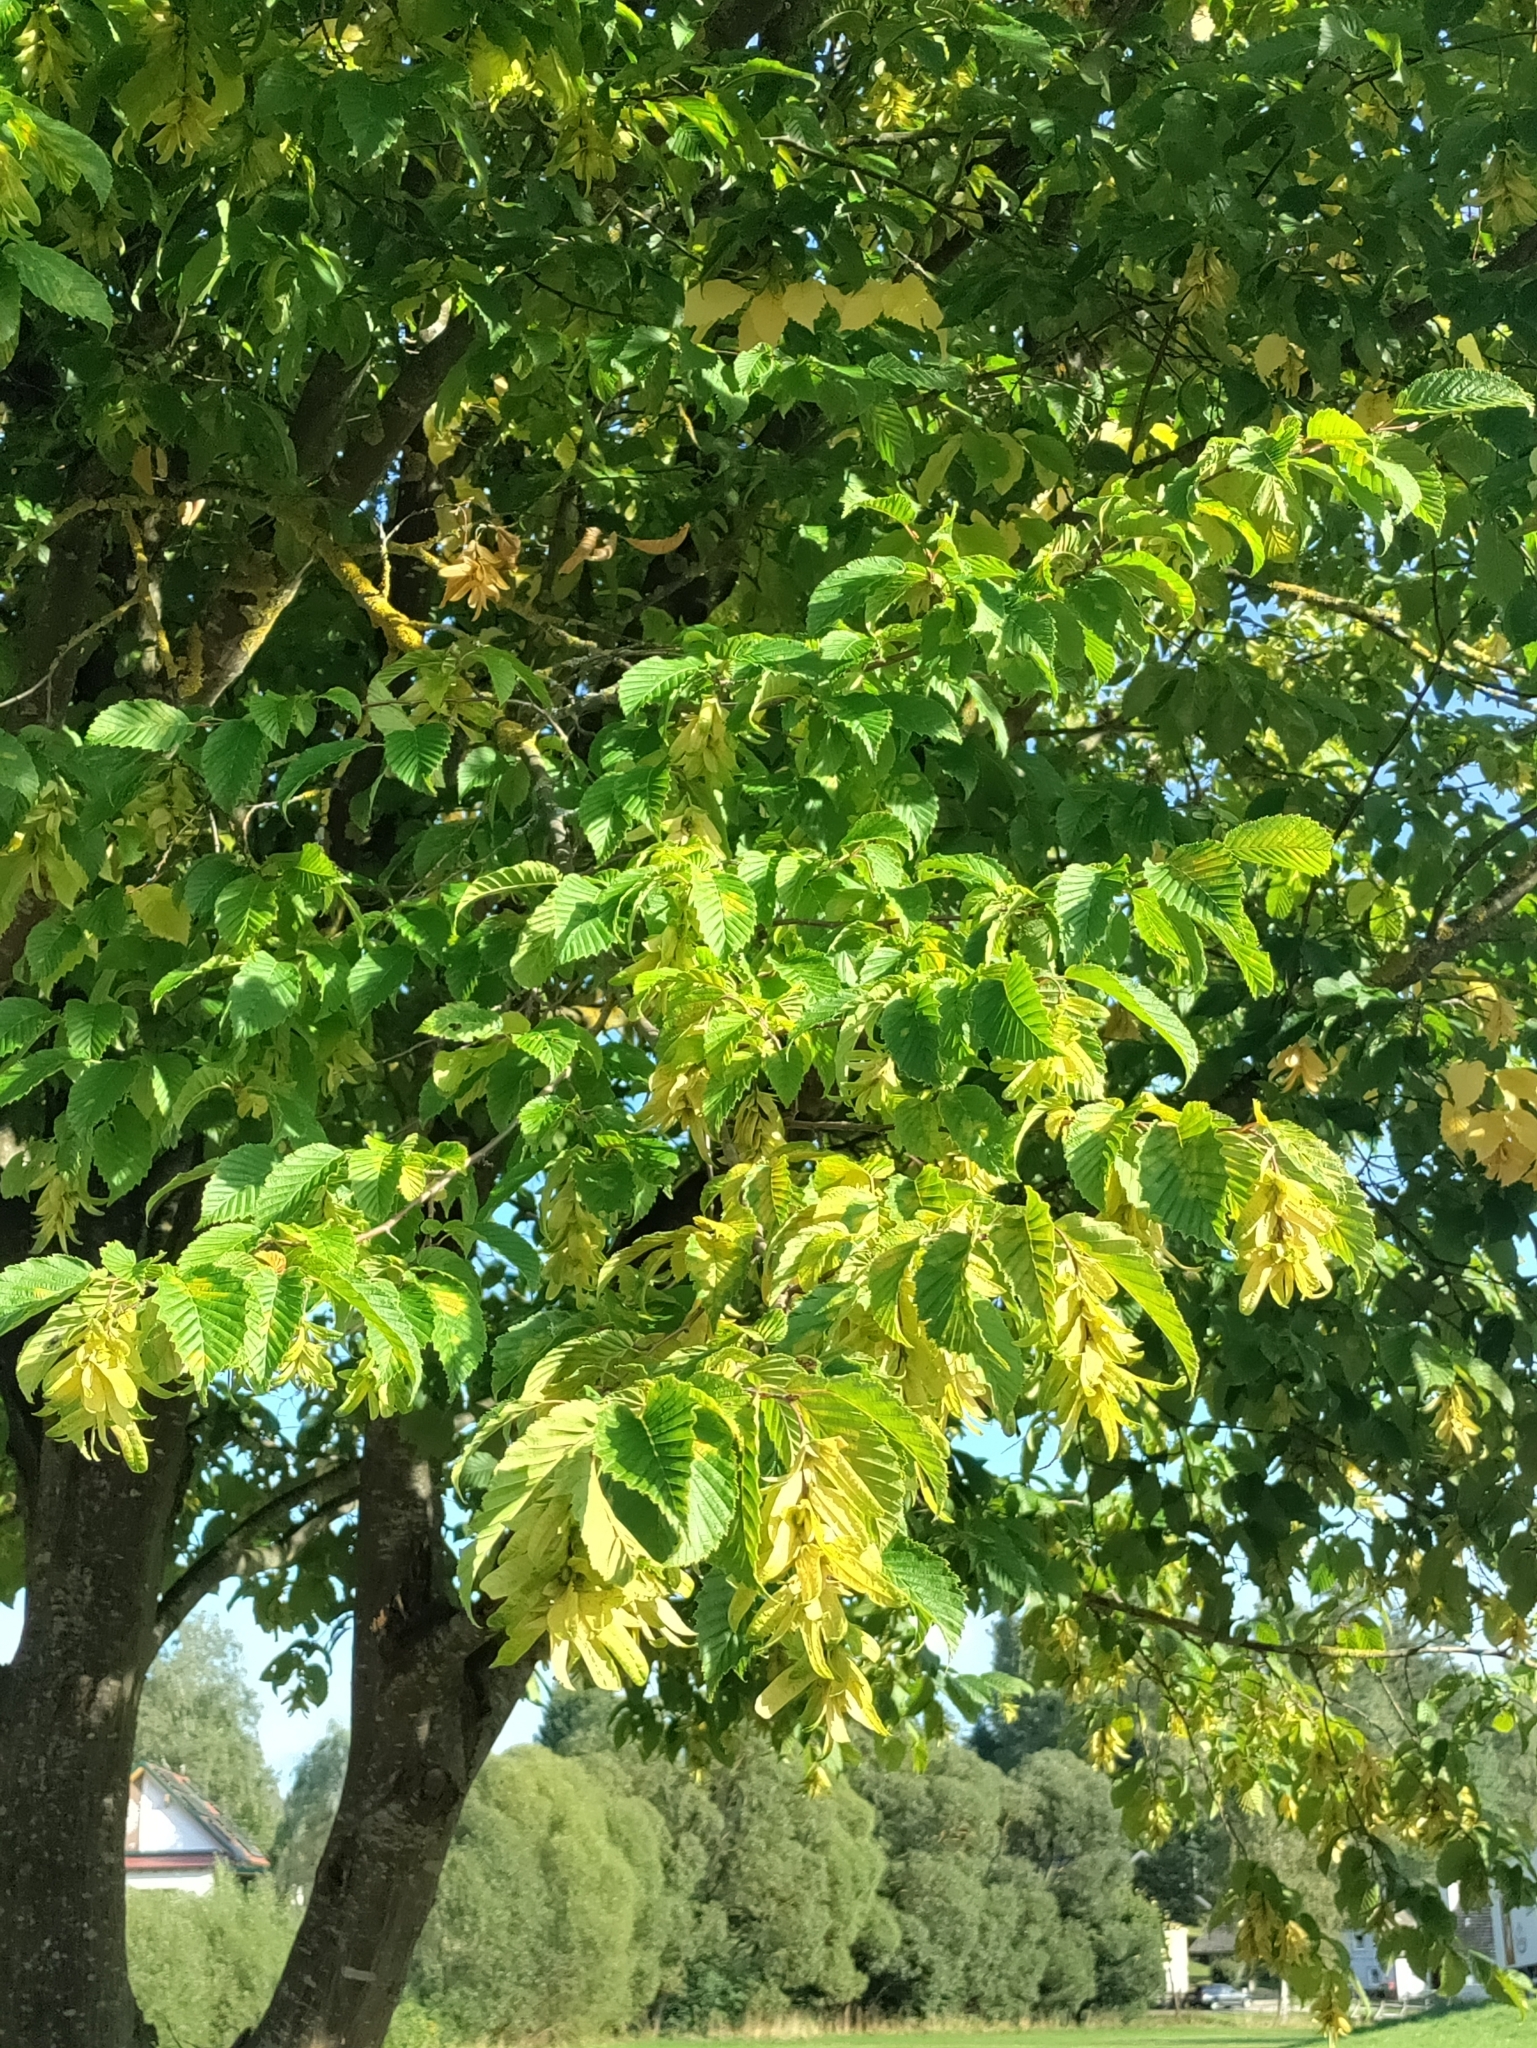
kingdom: Plantae
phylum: Tracheophyta
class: Magnoliopsida
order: Fagales
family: Betulaceae
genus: Carpinus
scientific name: Carpinus betulus
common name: Hornbeam
